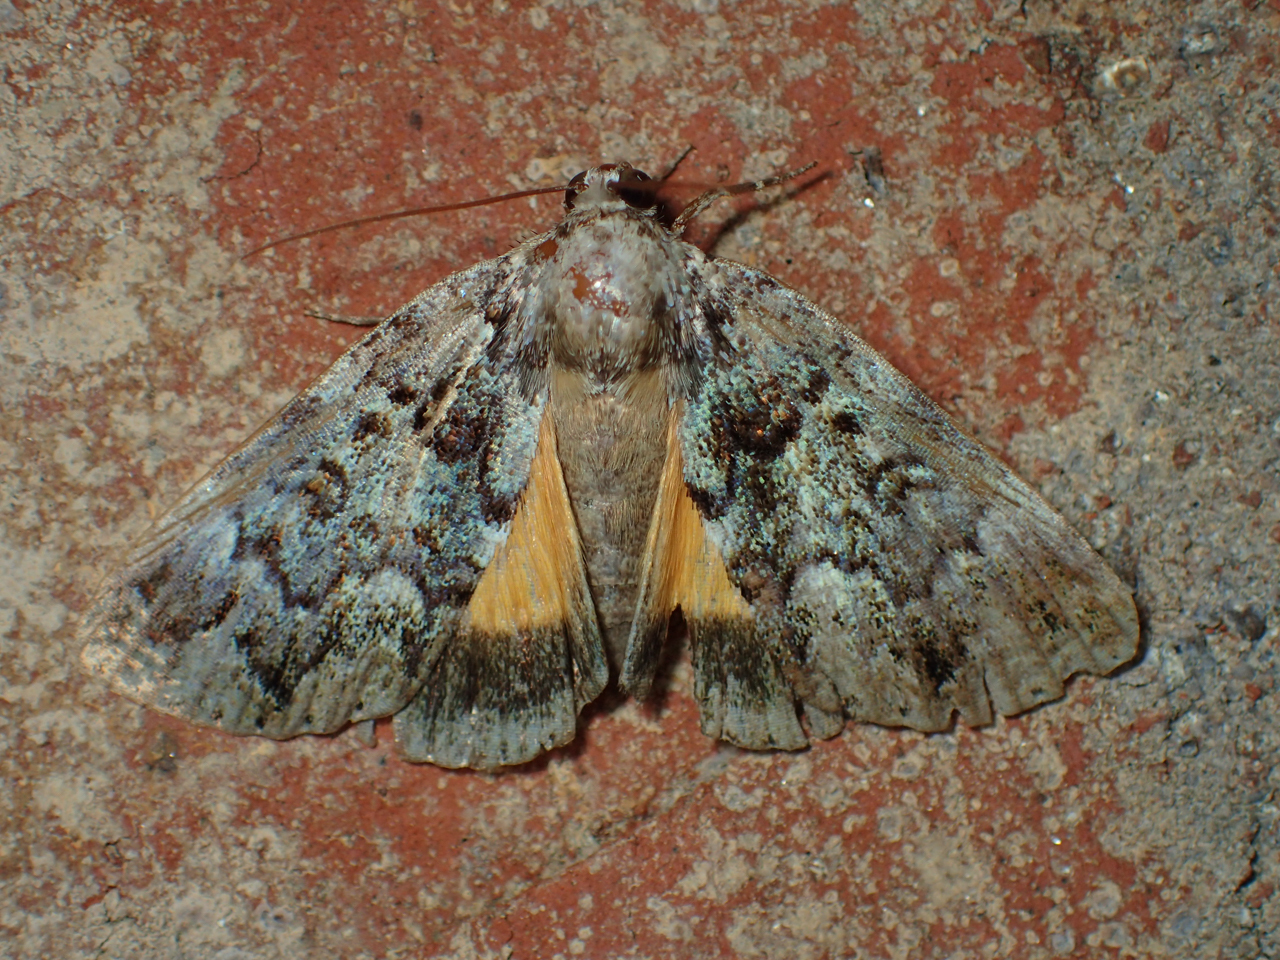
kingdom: Animalia
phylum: Arthropoda
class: Insecta
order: Lepidoptera
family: Erebidae
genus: Allotria
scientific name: Allotria elonympha
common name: False underwing
